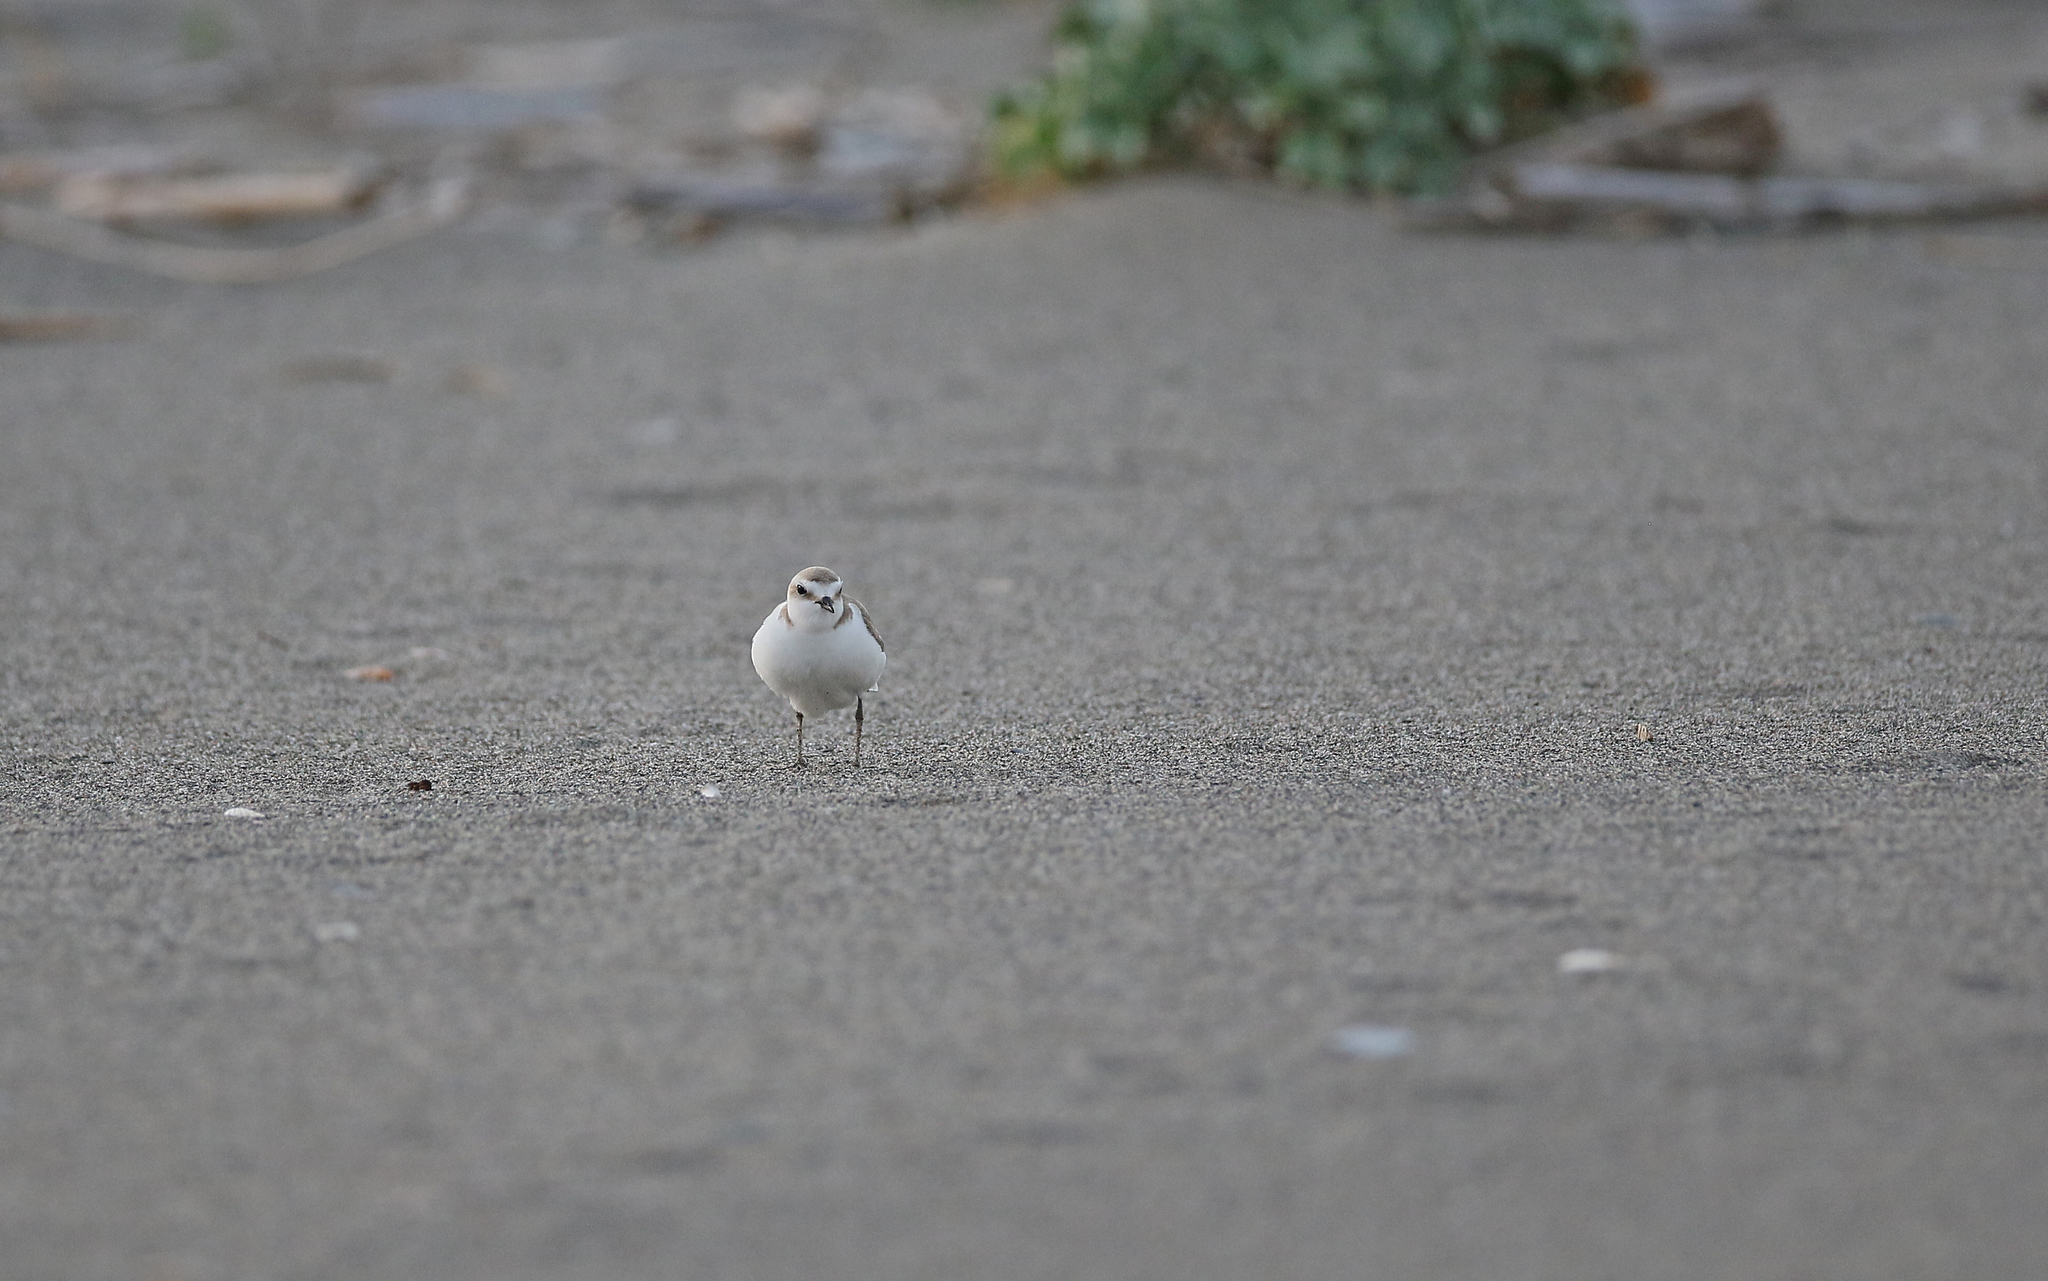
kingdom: Animalia
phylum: Chordata
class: Aves
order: Charadriiformes
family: Charadriidae
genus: Charadrius
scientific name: Charadrius alexandrinus
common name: Kentish plover
